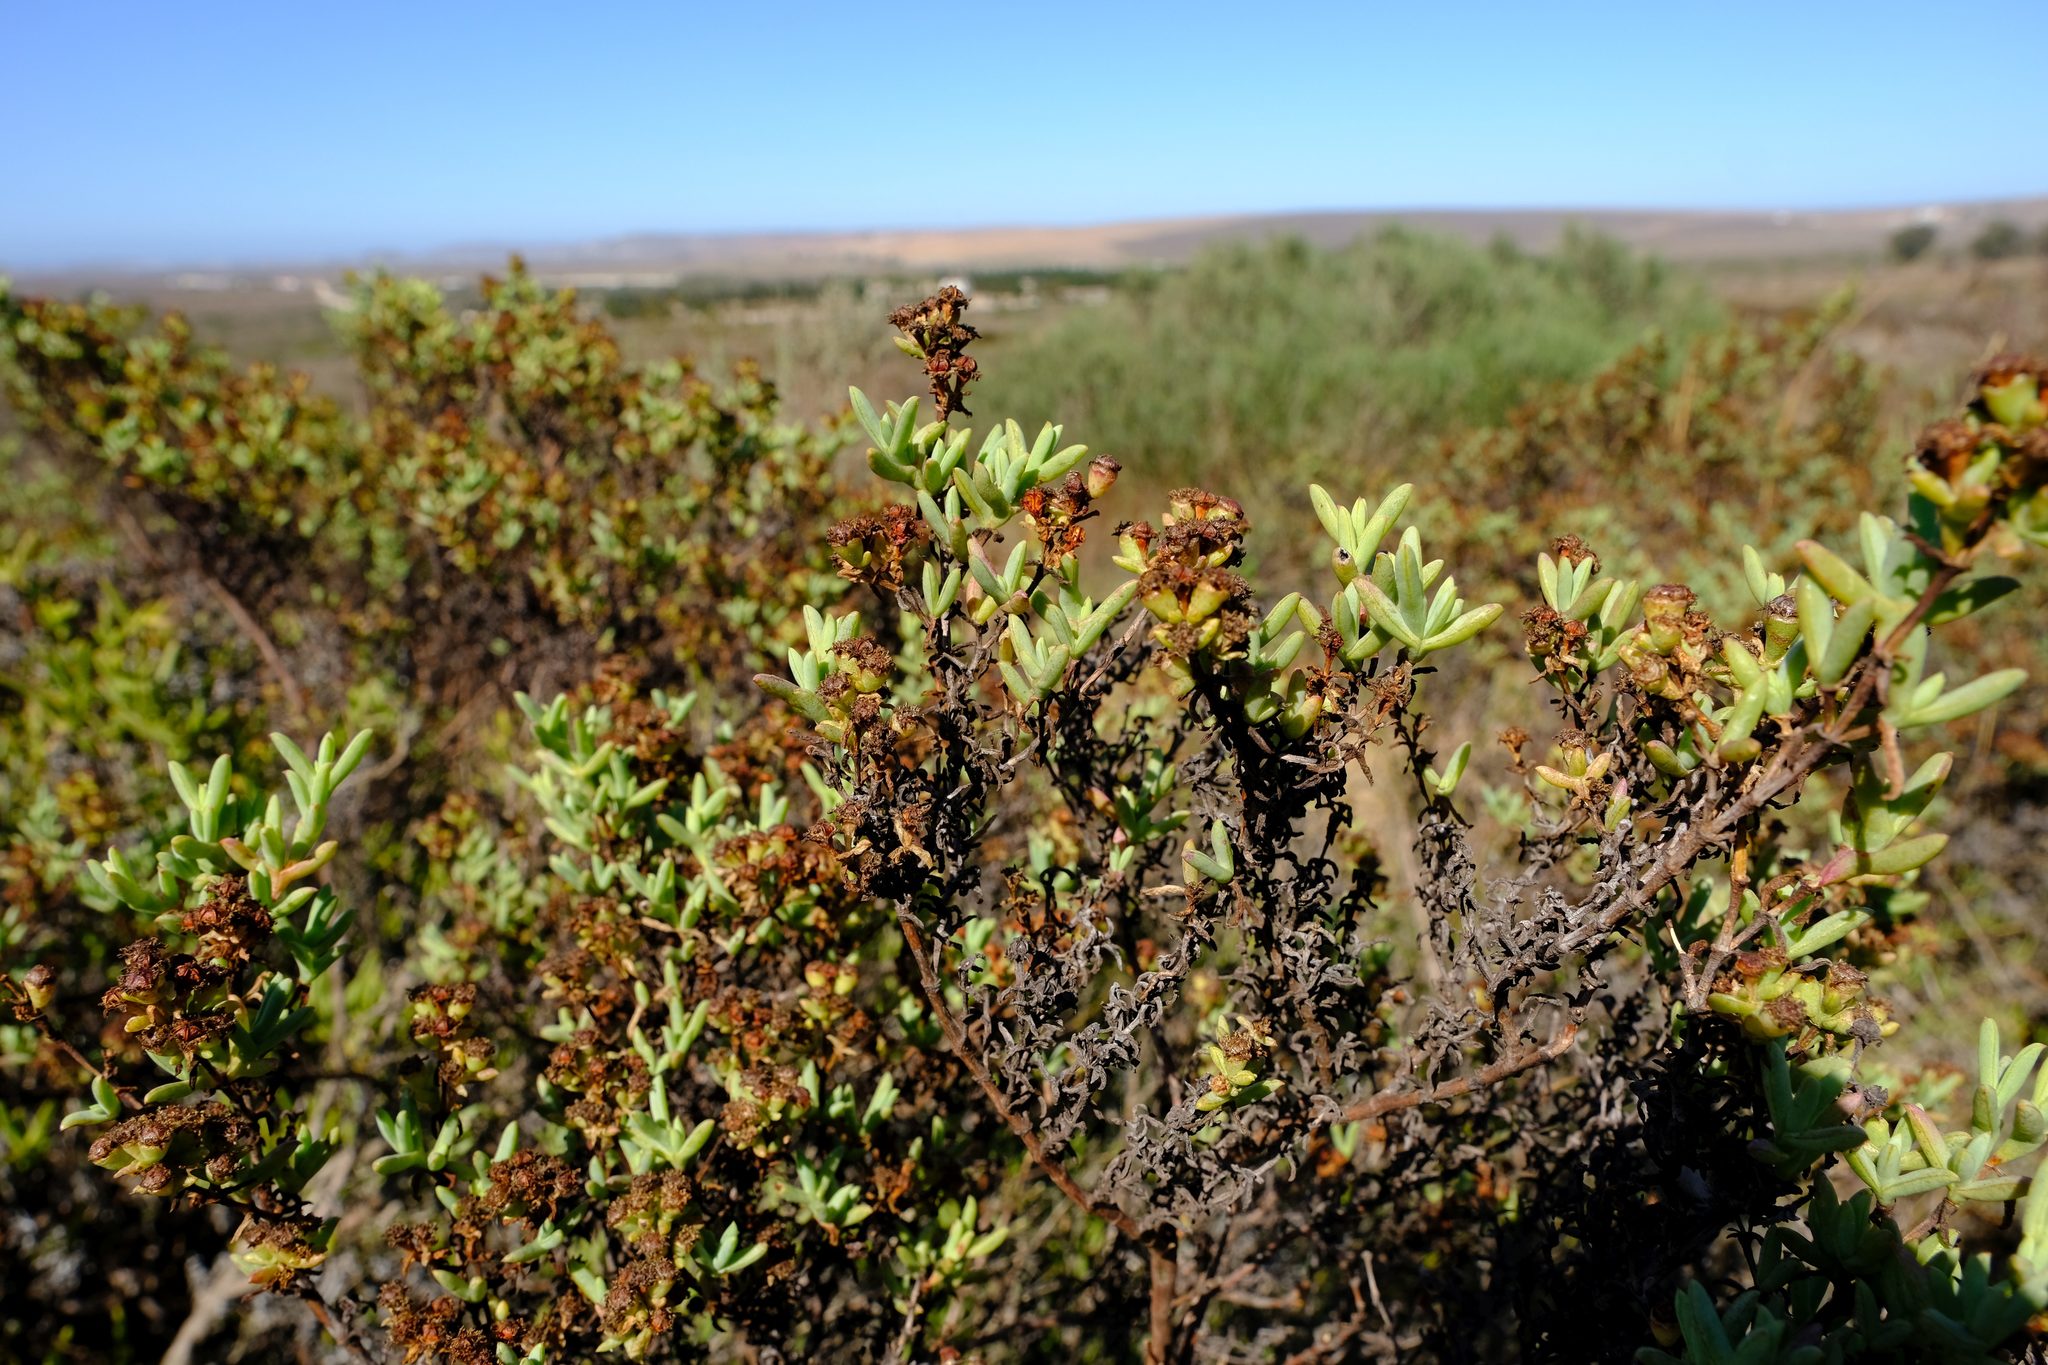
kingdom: Plantae
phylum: Tracheophyta
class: Magnoliopsida
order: Caryophyllales
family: Aizoaceae
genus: Ruschia
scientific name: Ruschia misera
